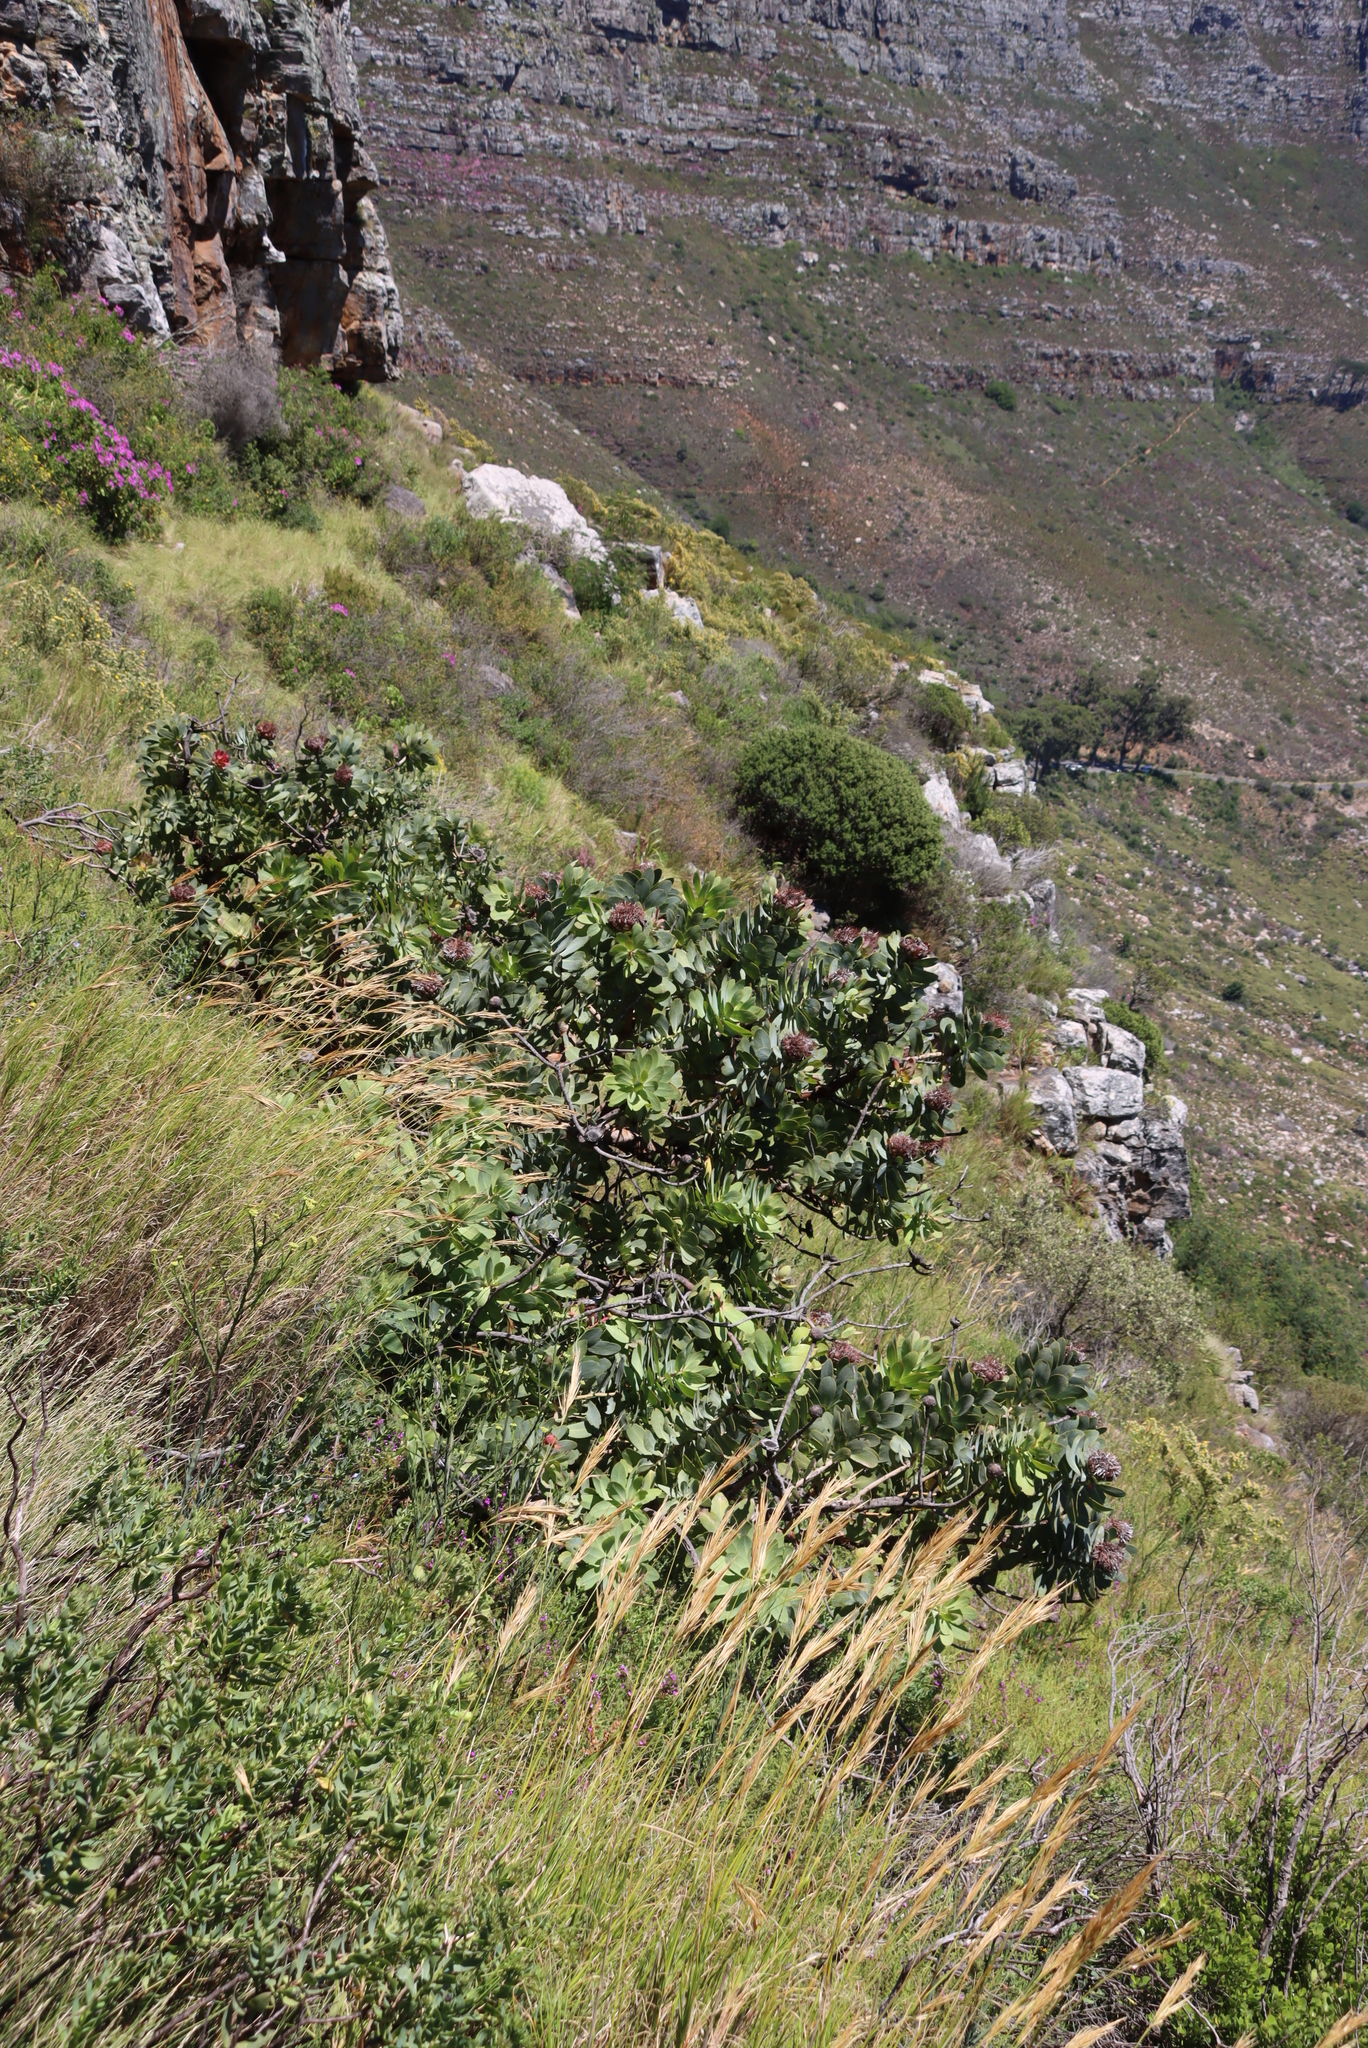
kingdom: Plantae
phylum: Tracheophyta
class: Magnoliopsida
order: Proteales
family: Proteaceae
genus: Protea
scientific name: Protea nitida
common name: Tree protea
